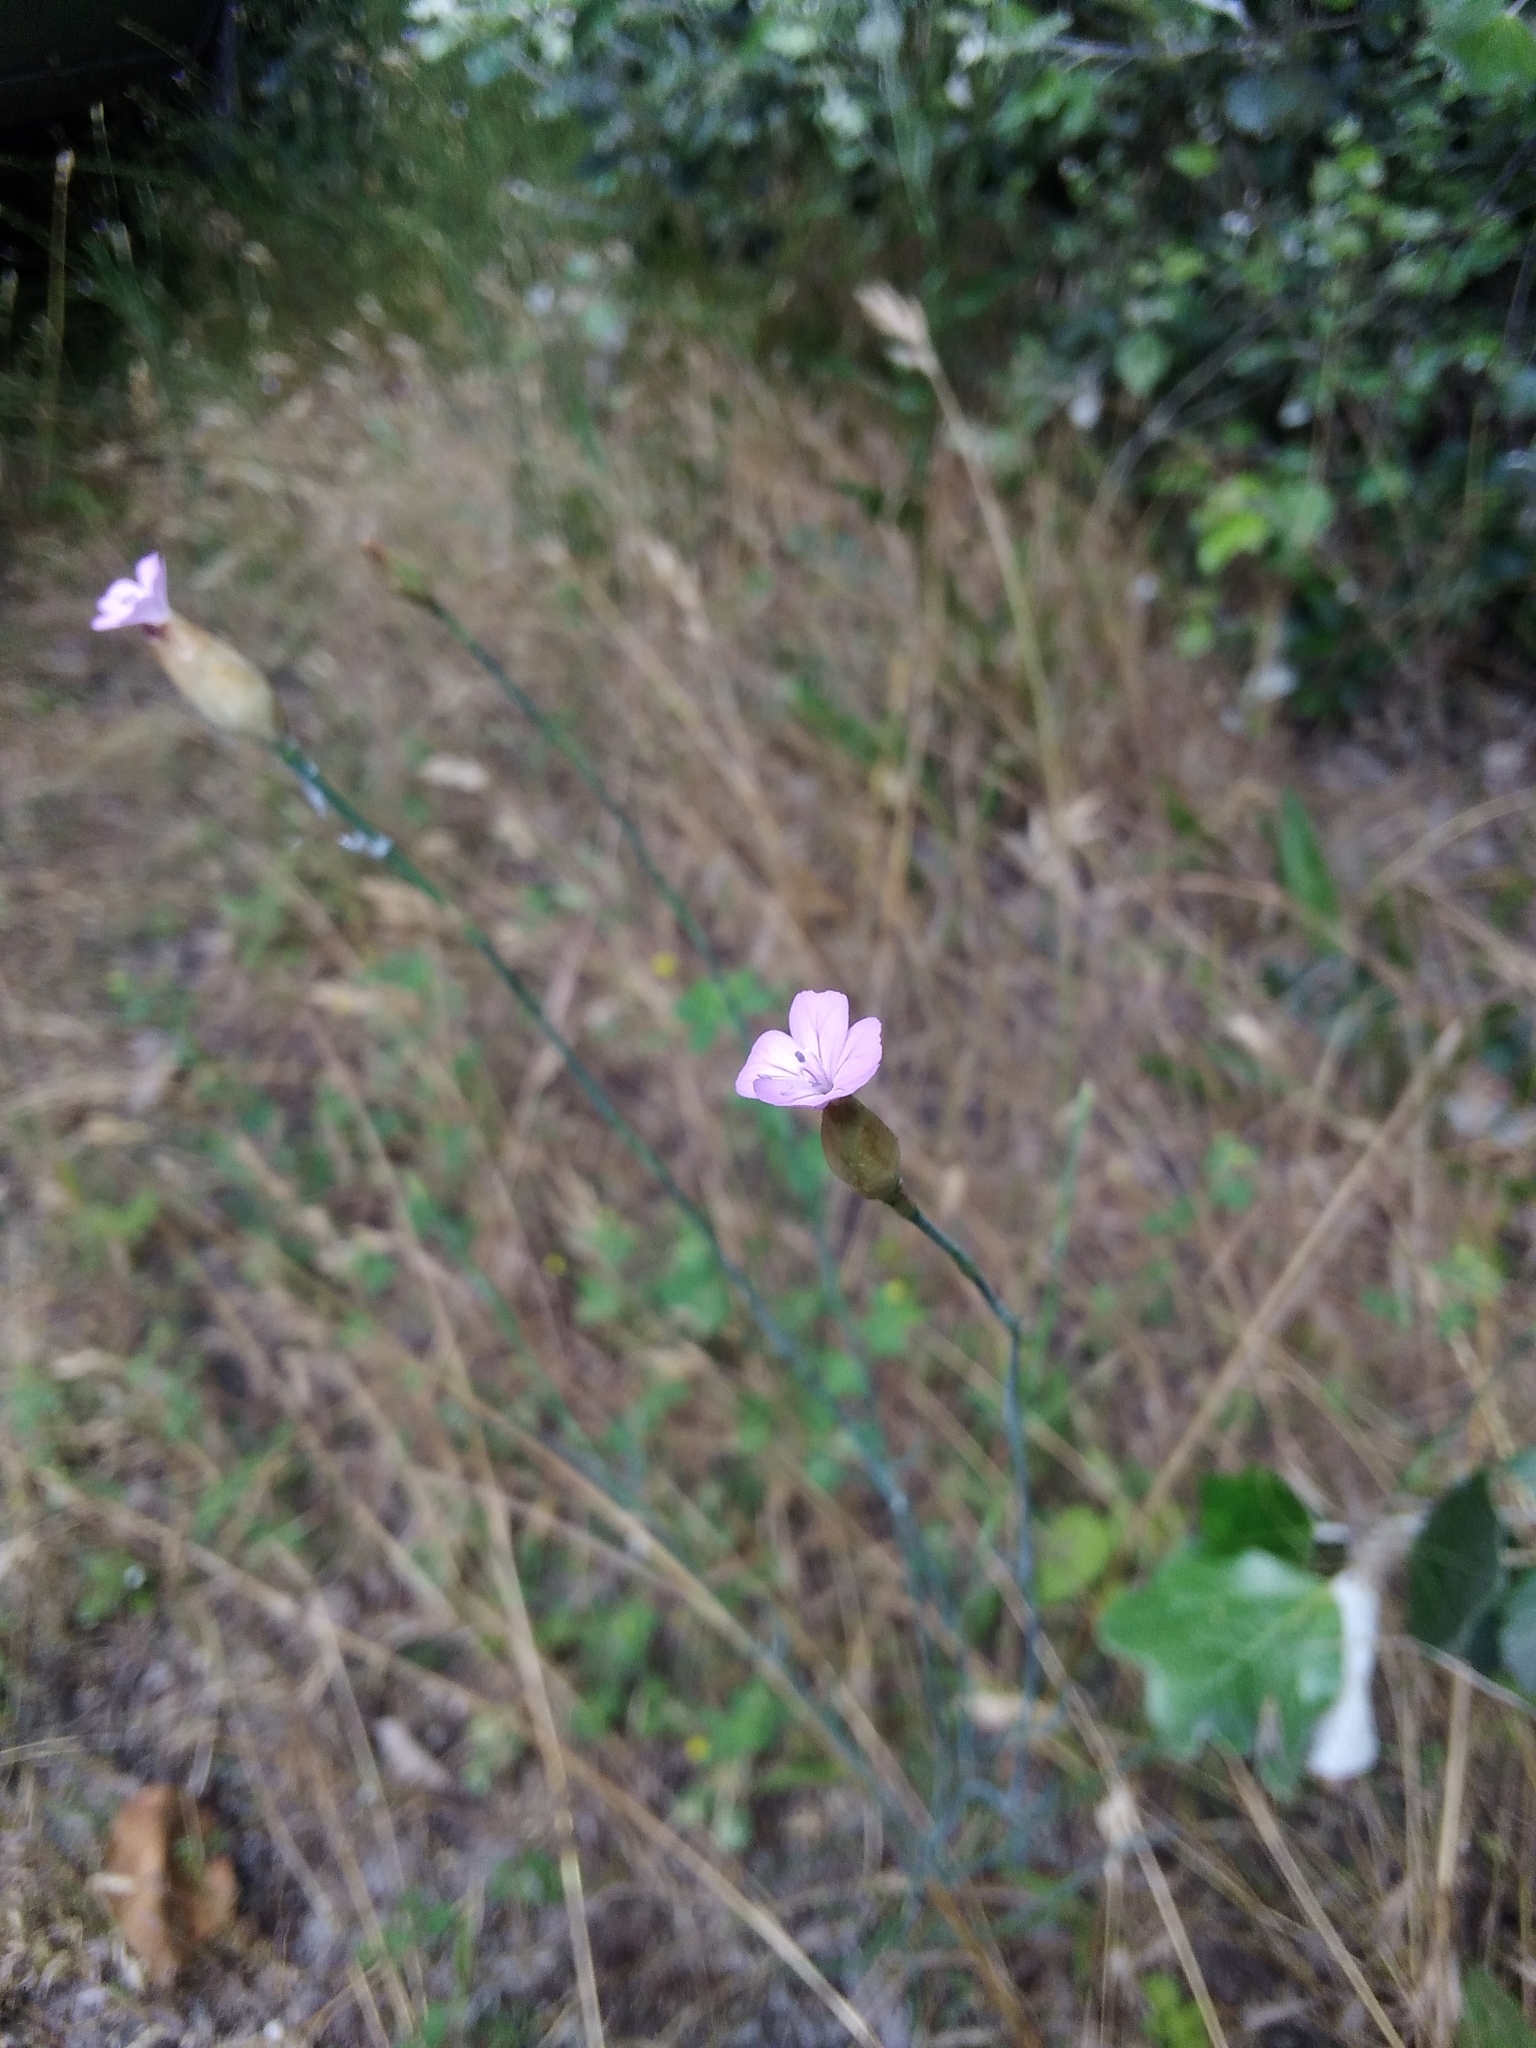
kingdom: Plantae
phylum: Tracheophyta
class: Magnoliopsida
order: Caryophyllales
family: Caryophyllaceae
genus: Petrorhagia
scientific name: Petrorhagia prolifera
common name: Proliferous pink
